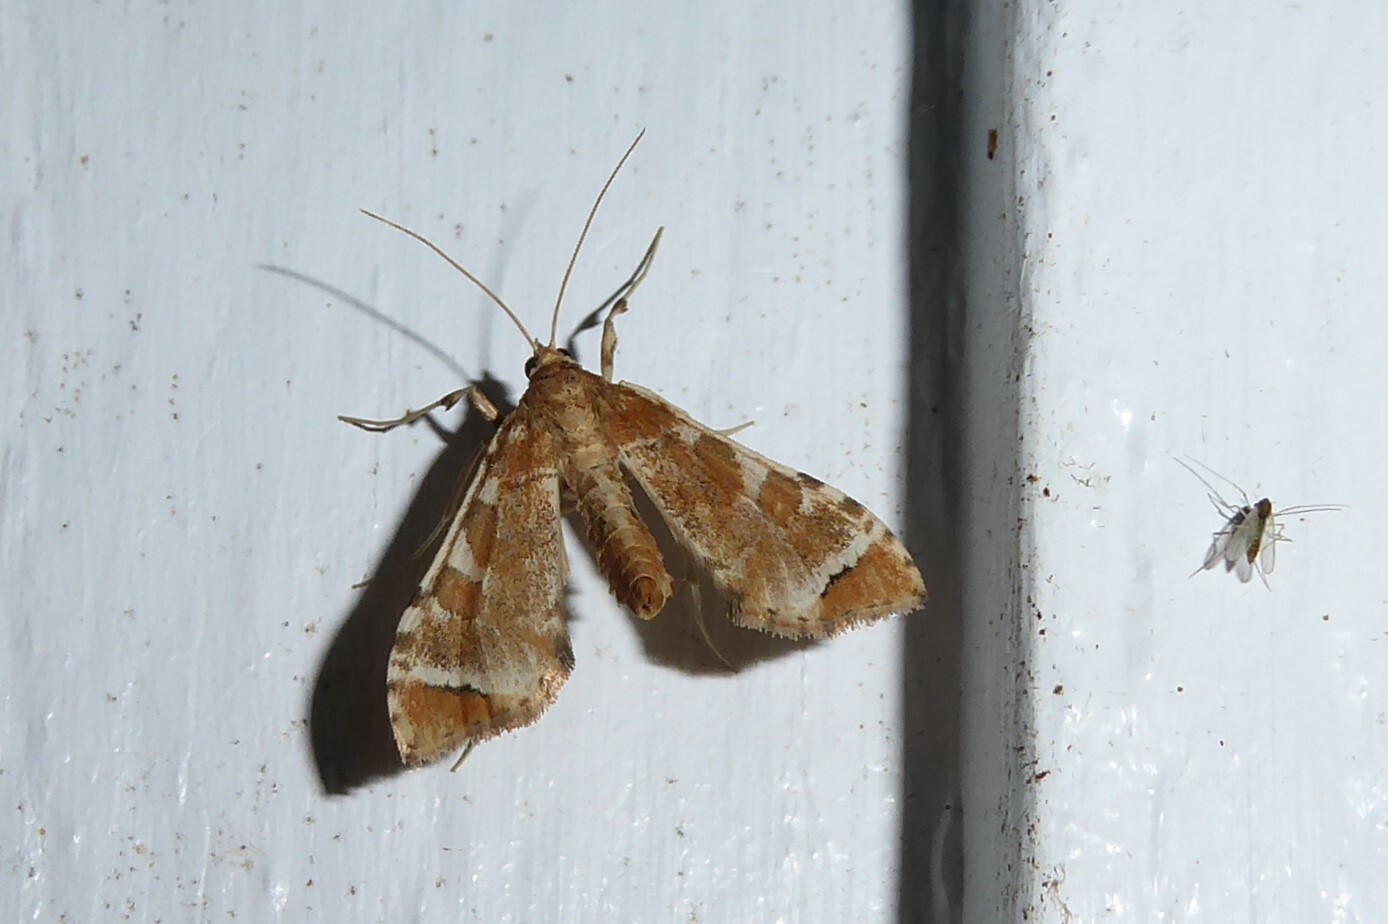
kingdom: Animalia
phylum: Arthropoda
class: Insecta
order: Lepidoptera
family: Crambidae
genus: Sceliodes
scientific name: Sceliodes cordalis
